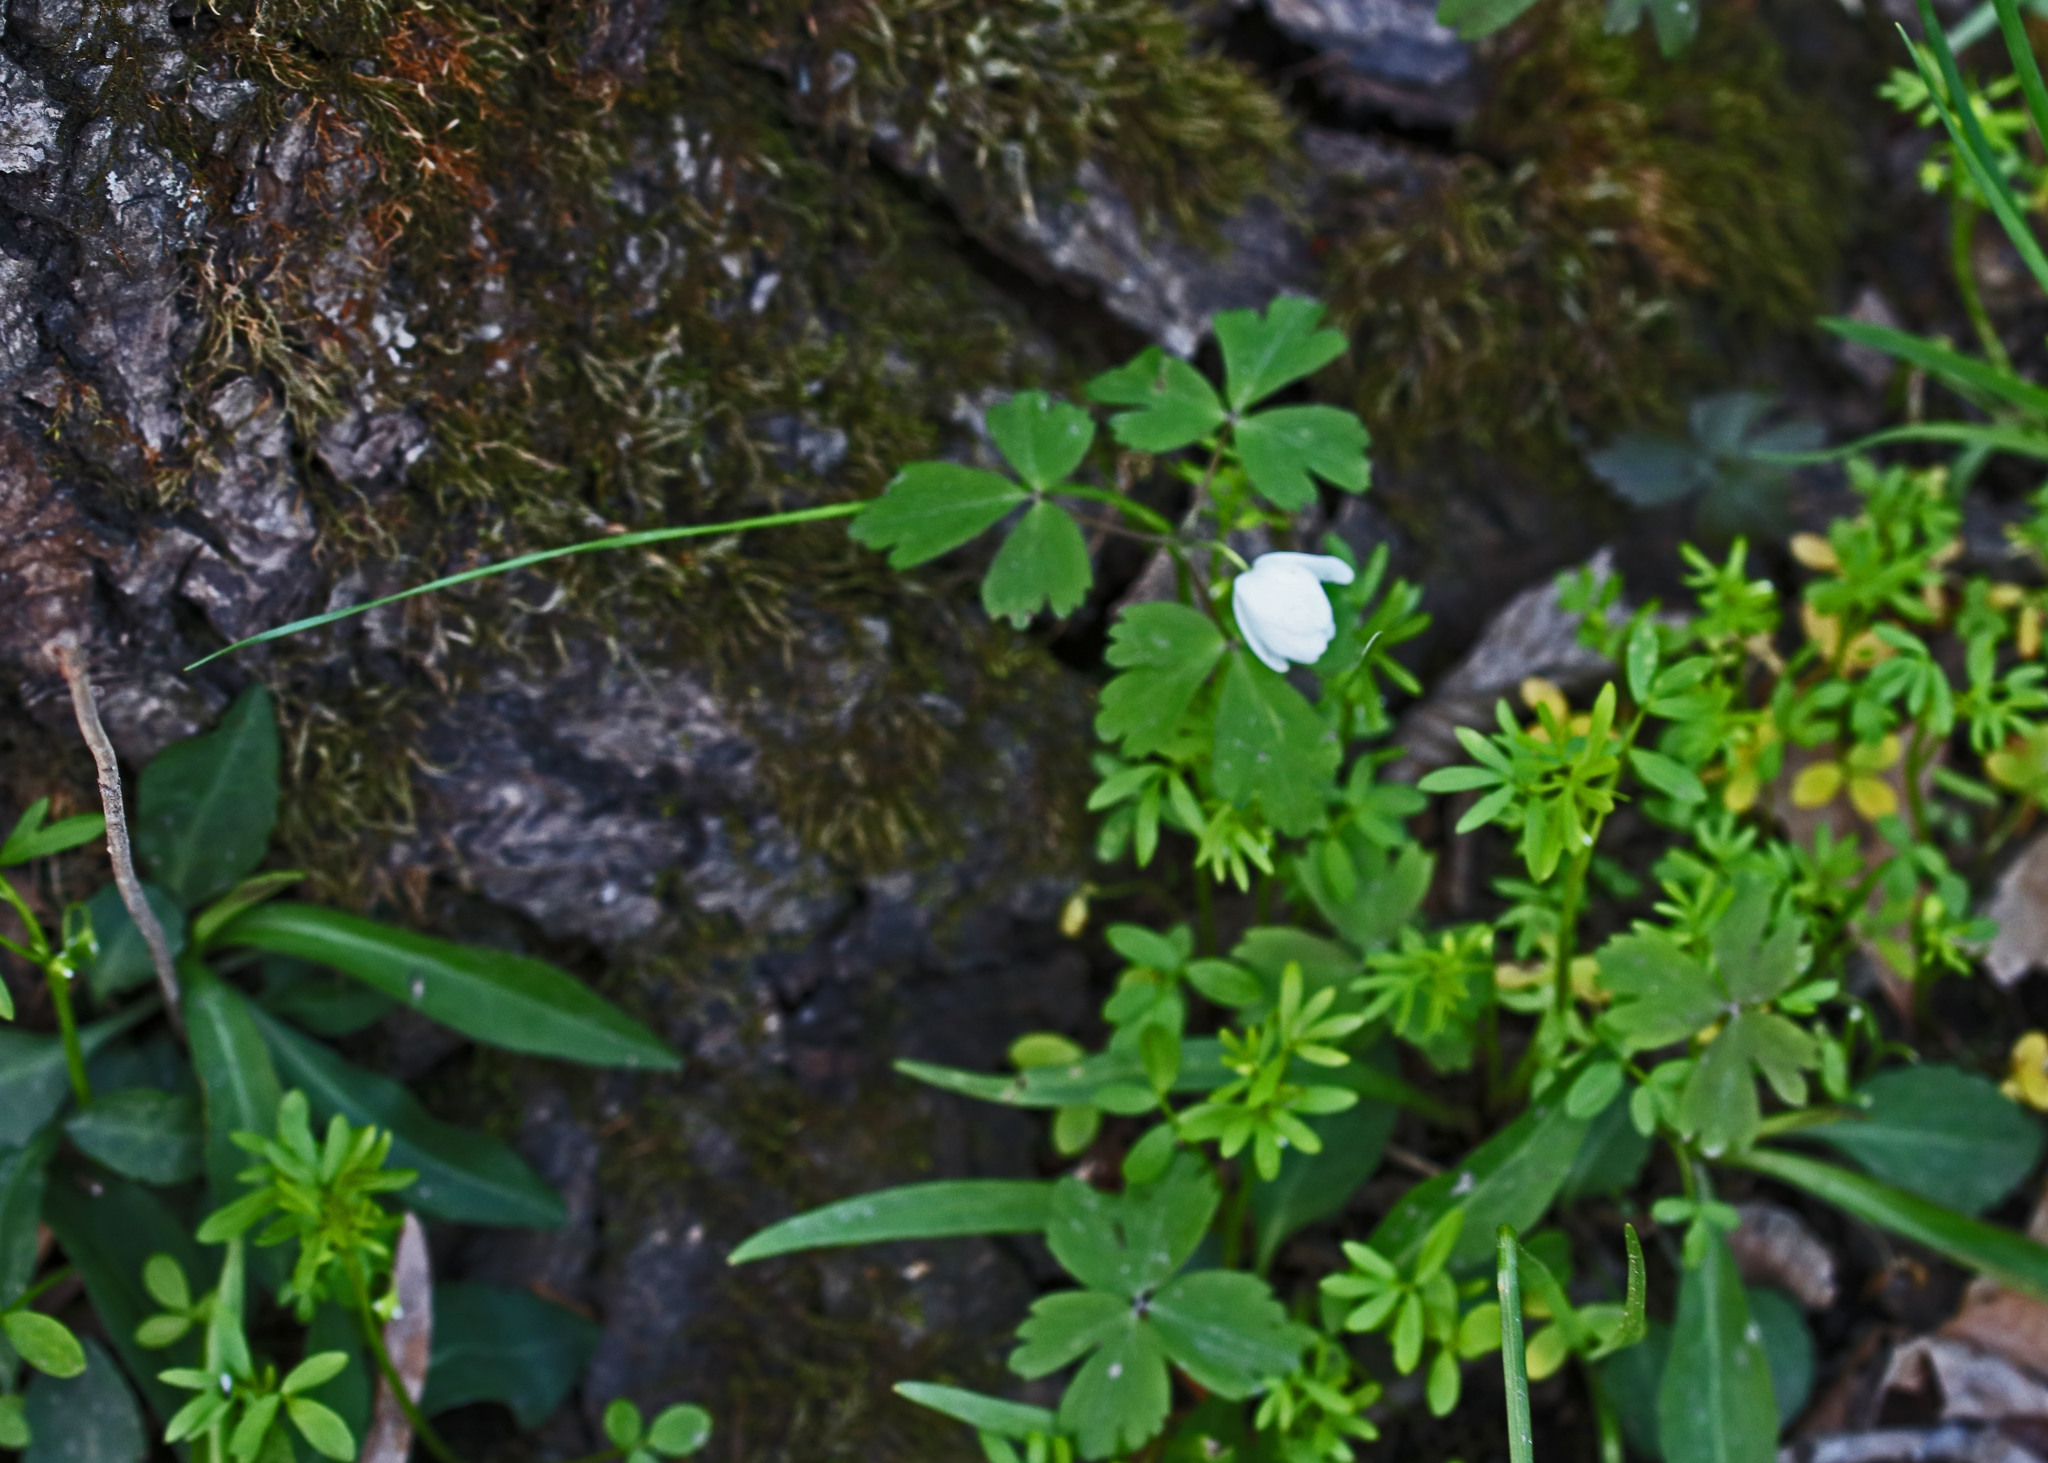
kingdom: Plantae
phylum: Tracheophyta
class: Magnoliopsida
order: Ranunculales
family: Ranunculaceae
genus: Anemone
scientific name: Anemone quinquefolia
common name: Wood anemone
